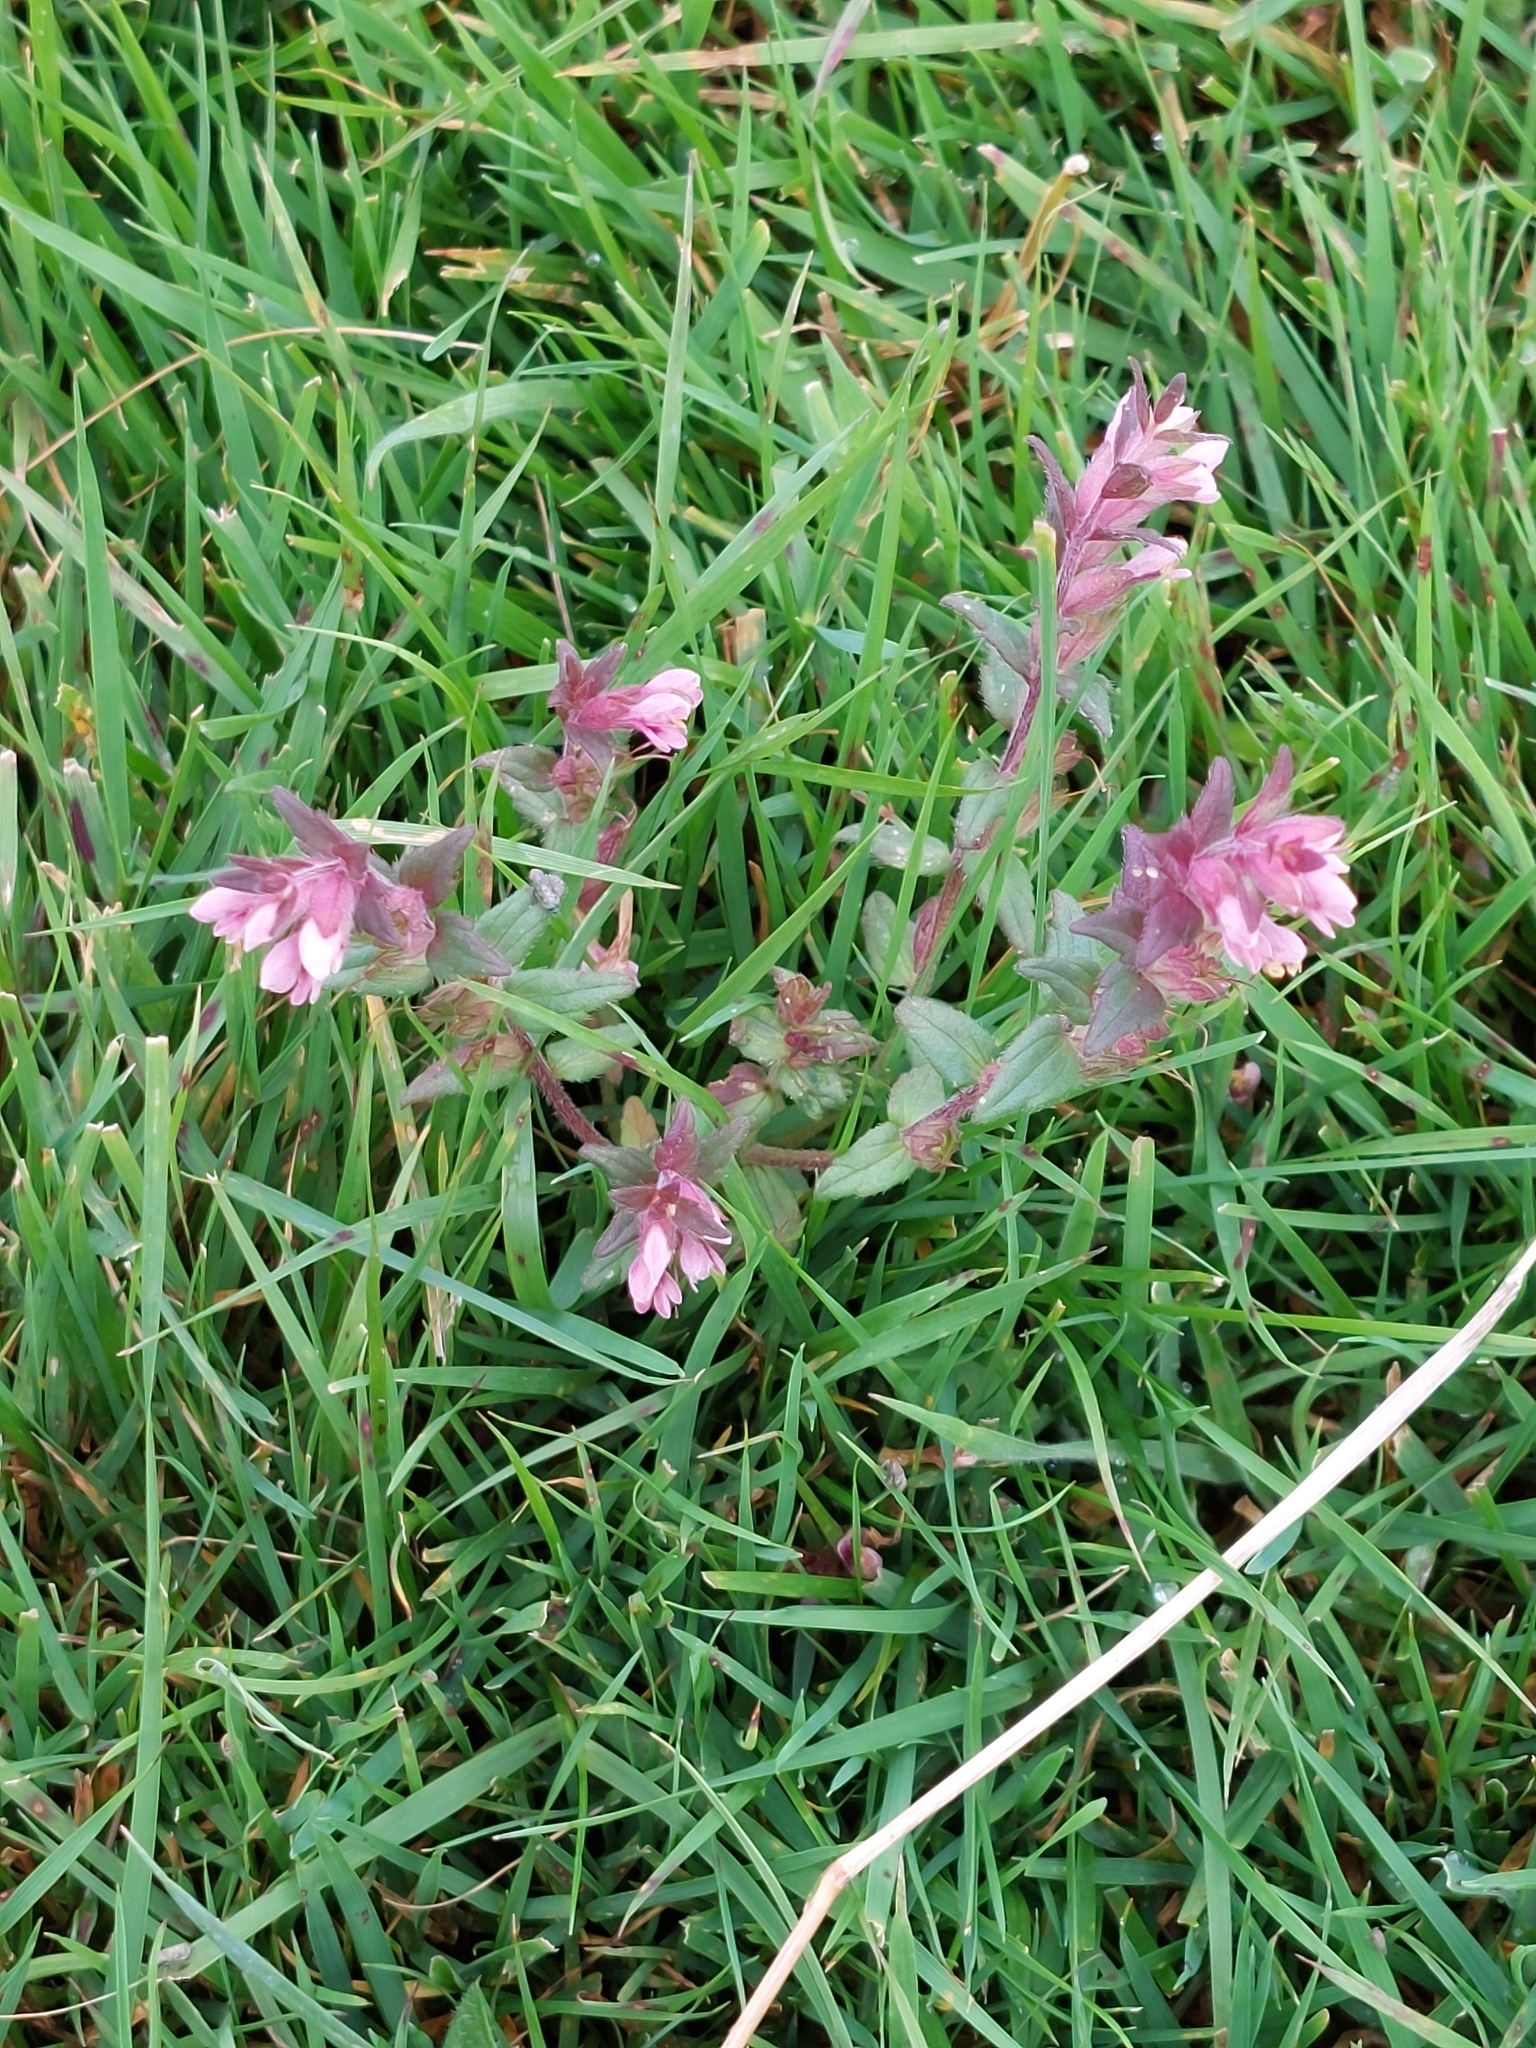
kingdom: Plantae
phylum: Tracheophyta
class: Magnoliopsida
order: Lamiales
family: Orobanchaceae
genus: Odontites
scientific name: Odontites vernus
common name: Red bartsia
